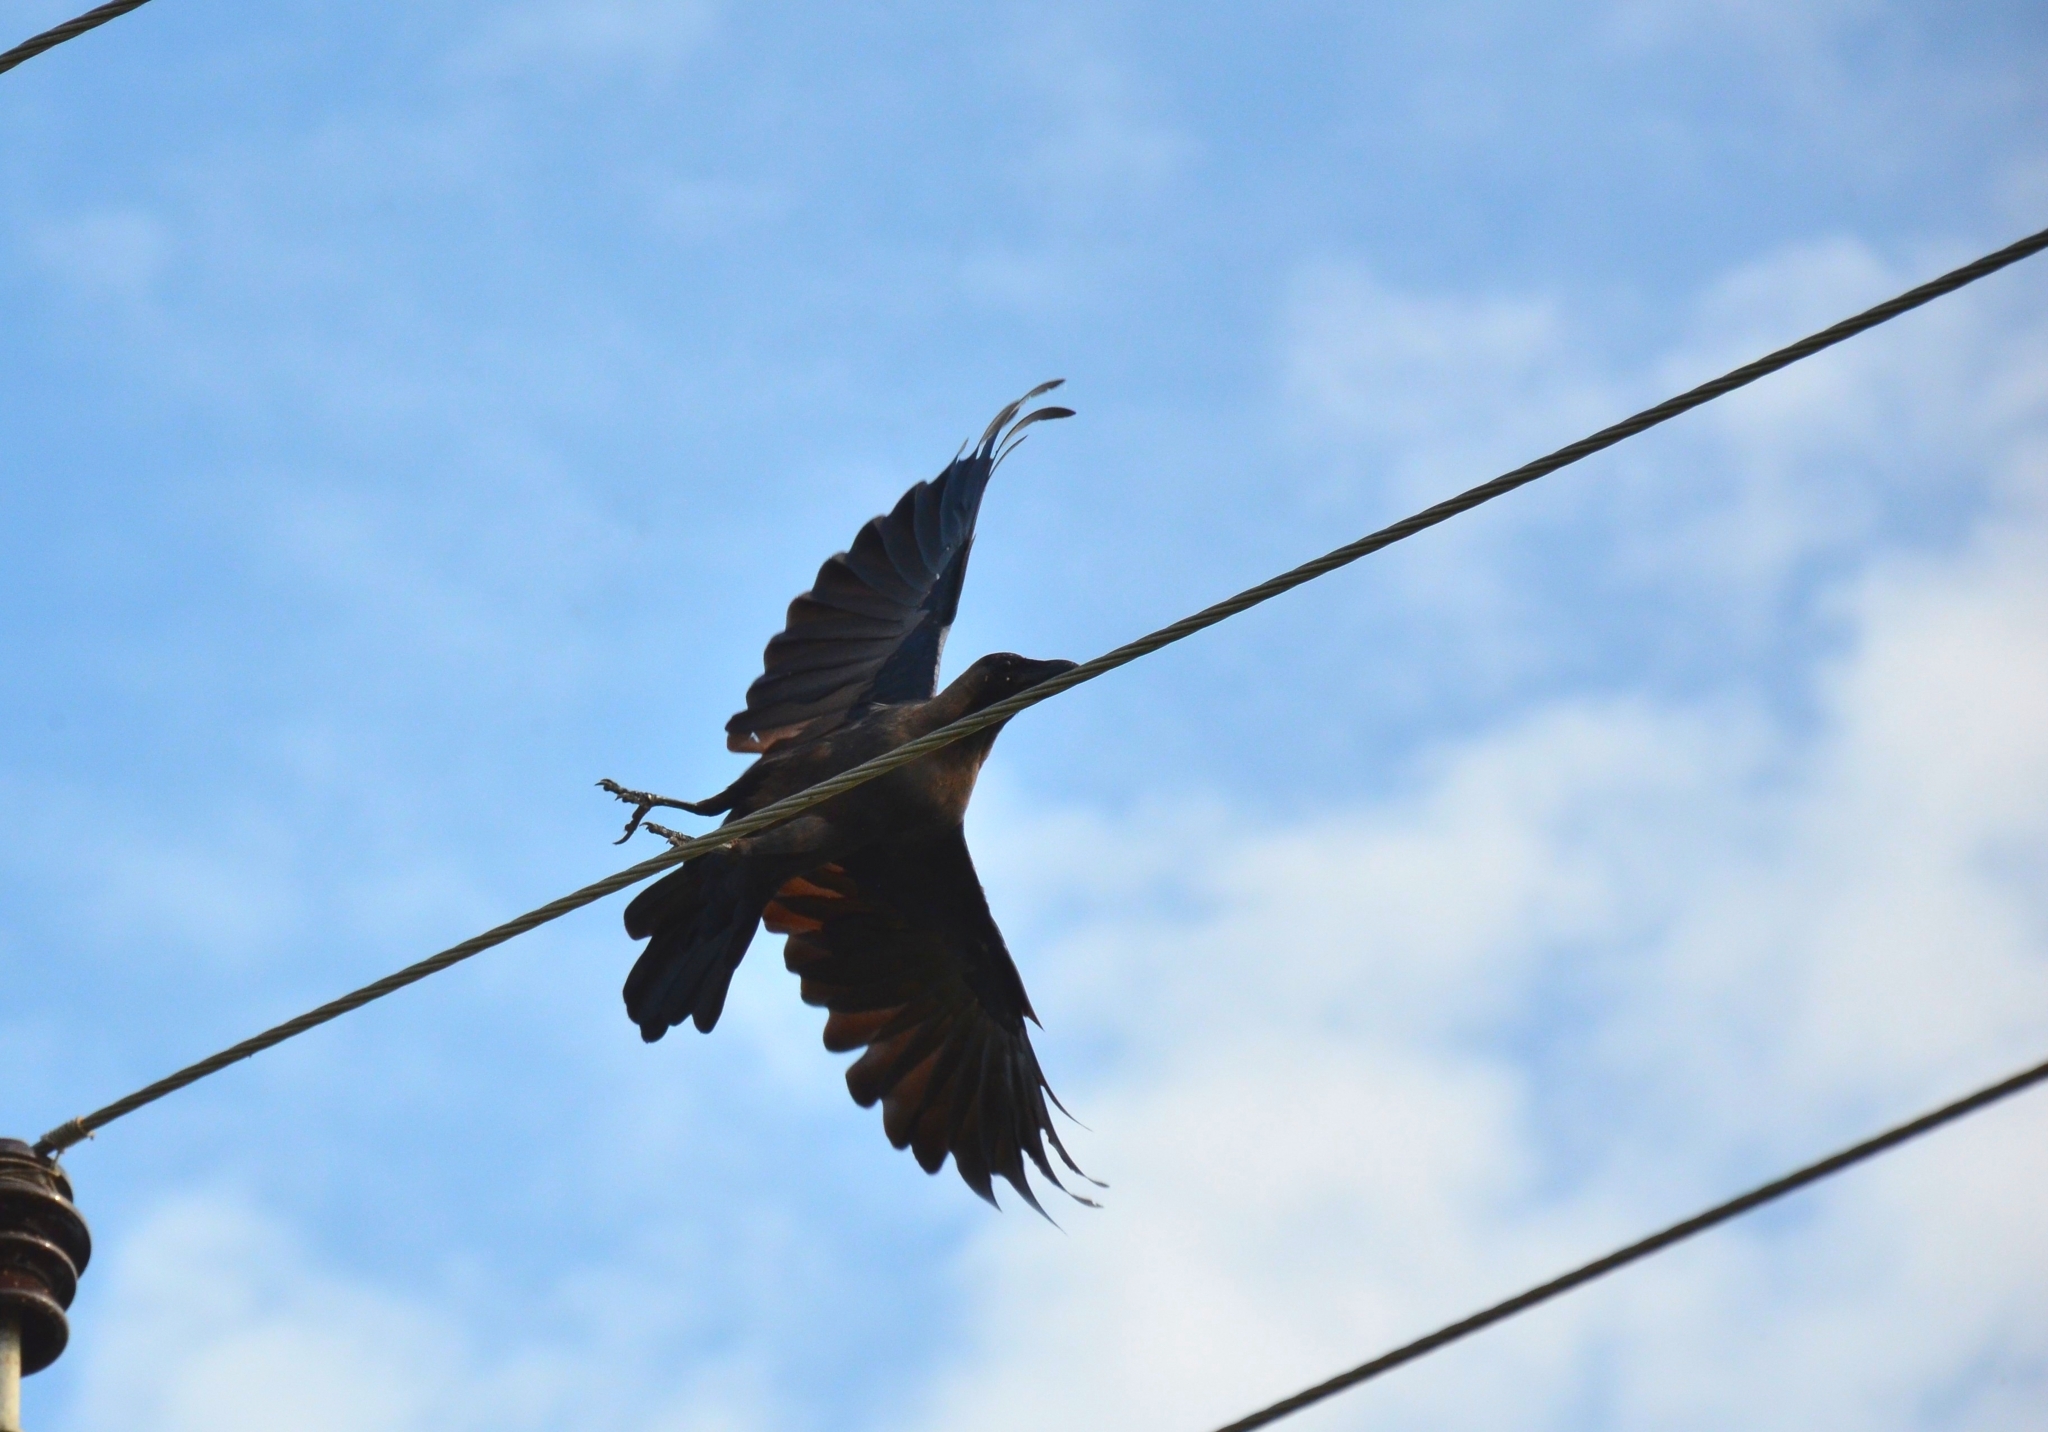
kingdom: Animalia
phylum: Chordata
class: Aves
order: Passeriformes
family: Corvidae
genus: Corvus
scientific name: Corvus splendens
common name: House crow
